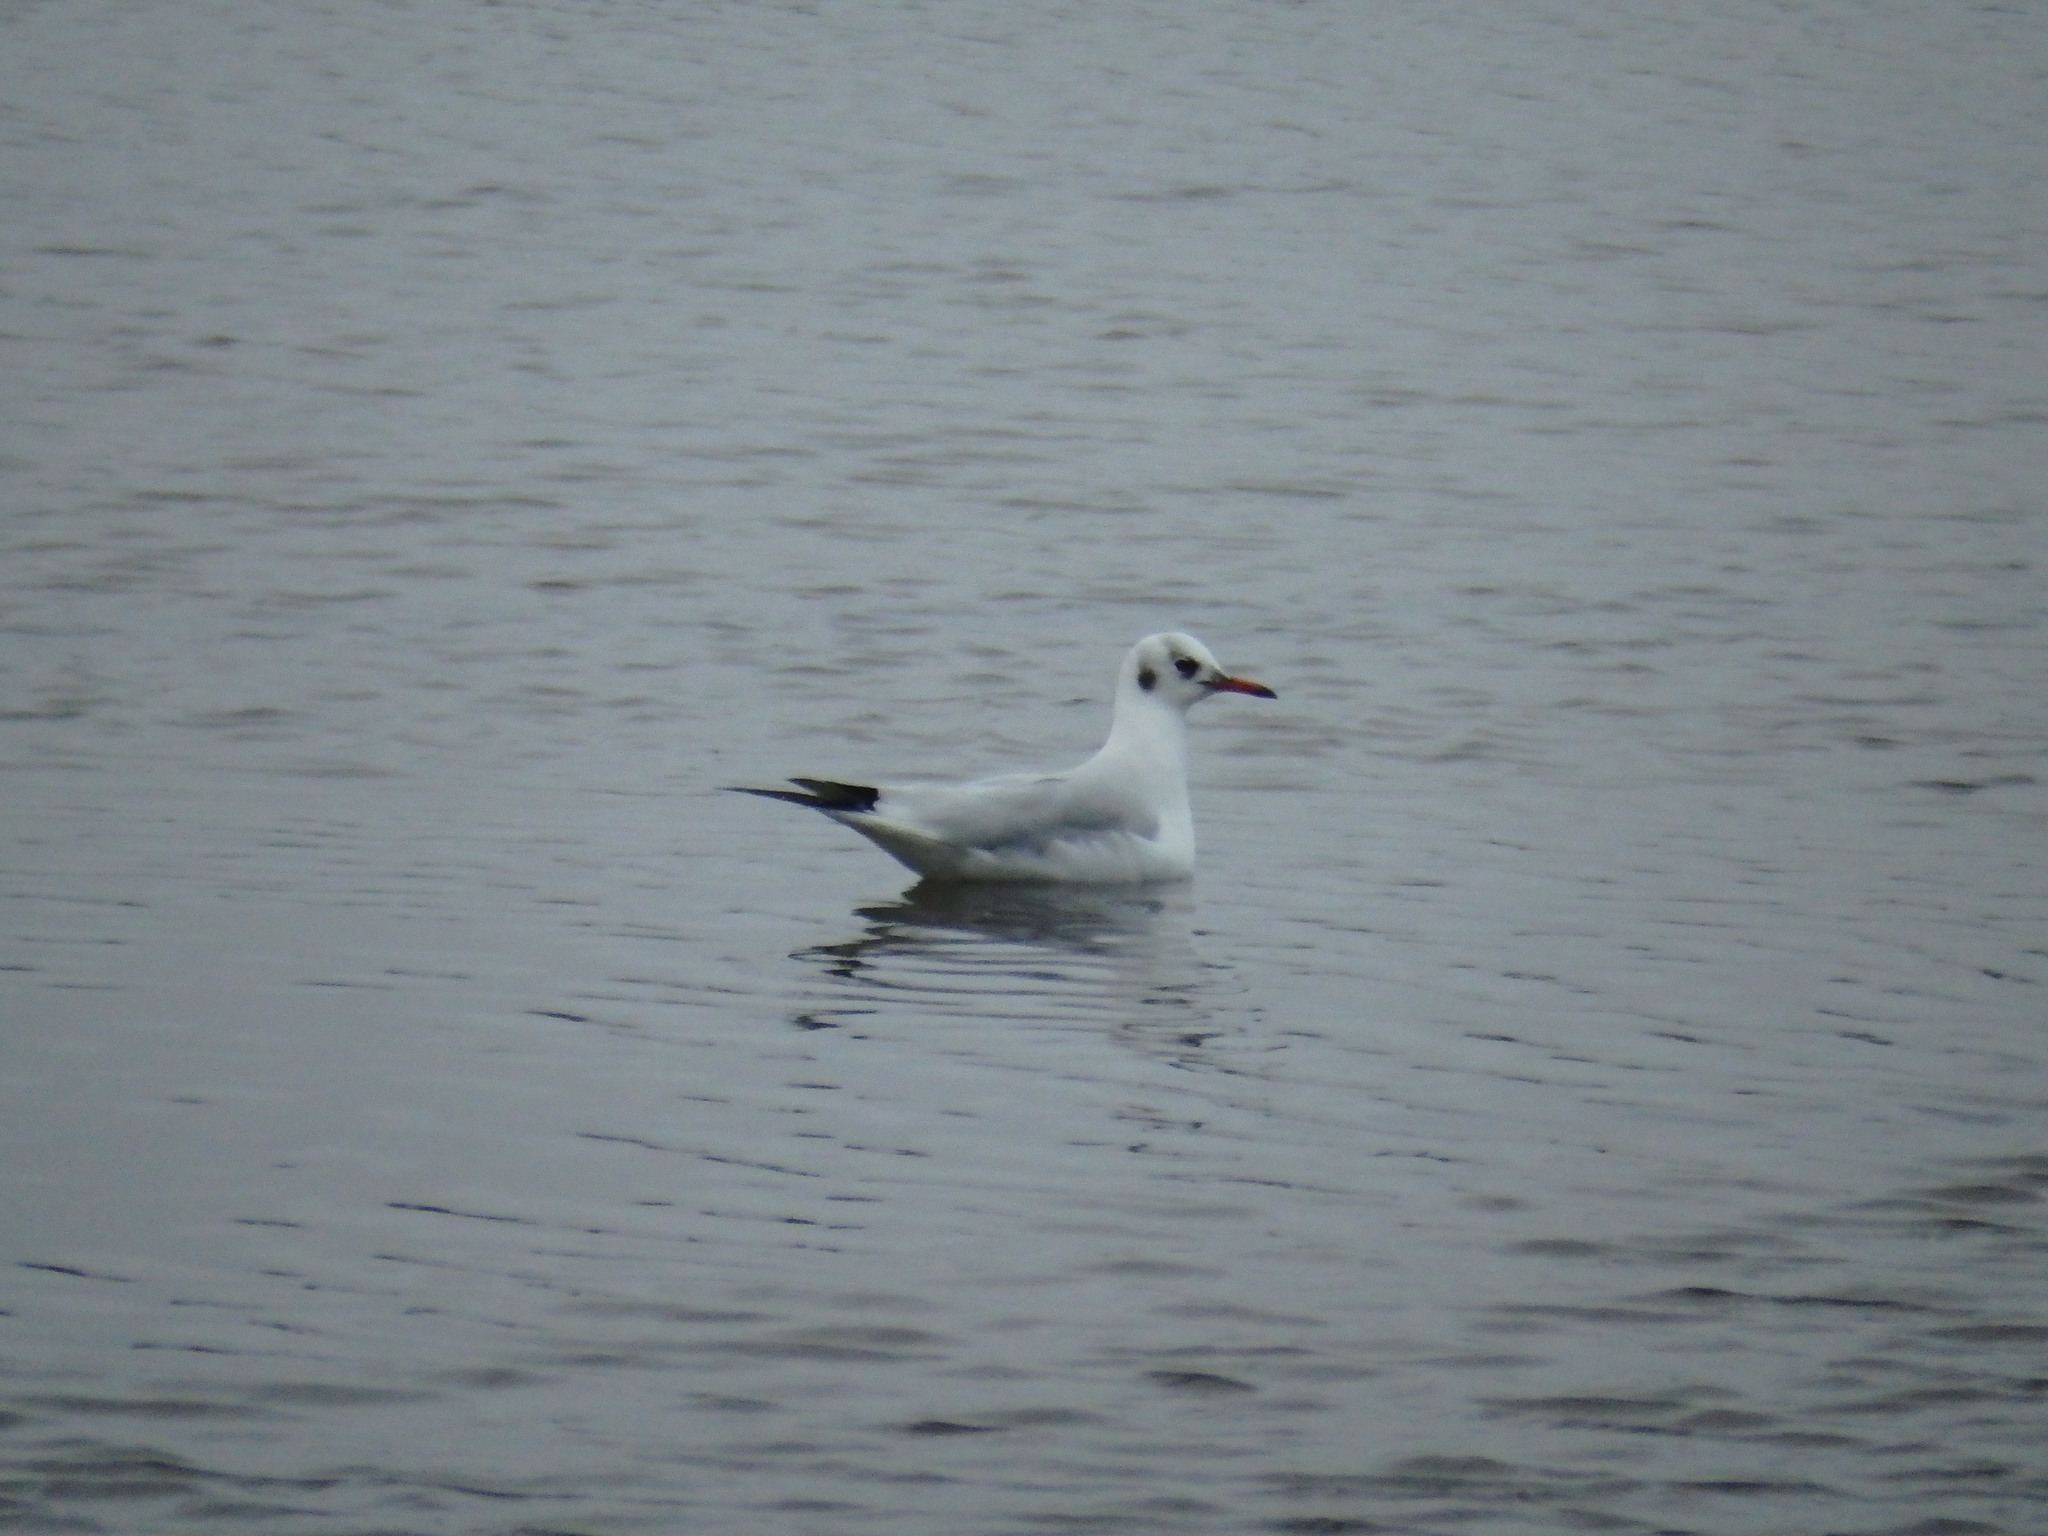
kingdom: Animalia
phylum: Chordata
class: Aves
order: Charadriiformes
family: Laridae
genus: Chroicocephalus
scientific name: Chroicocephalus ridibundus
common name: Black-headed gull
